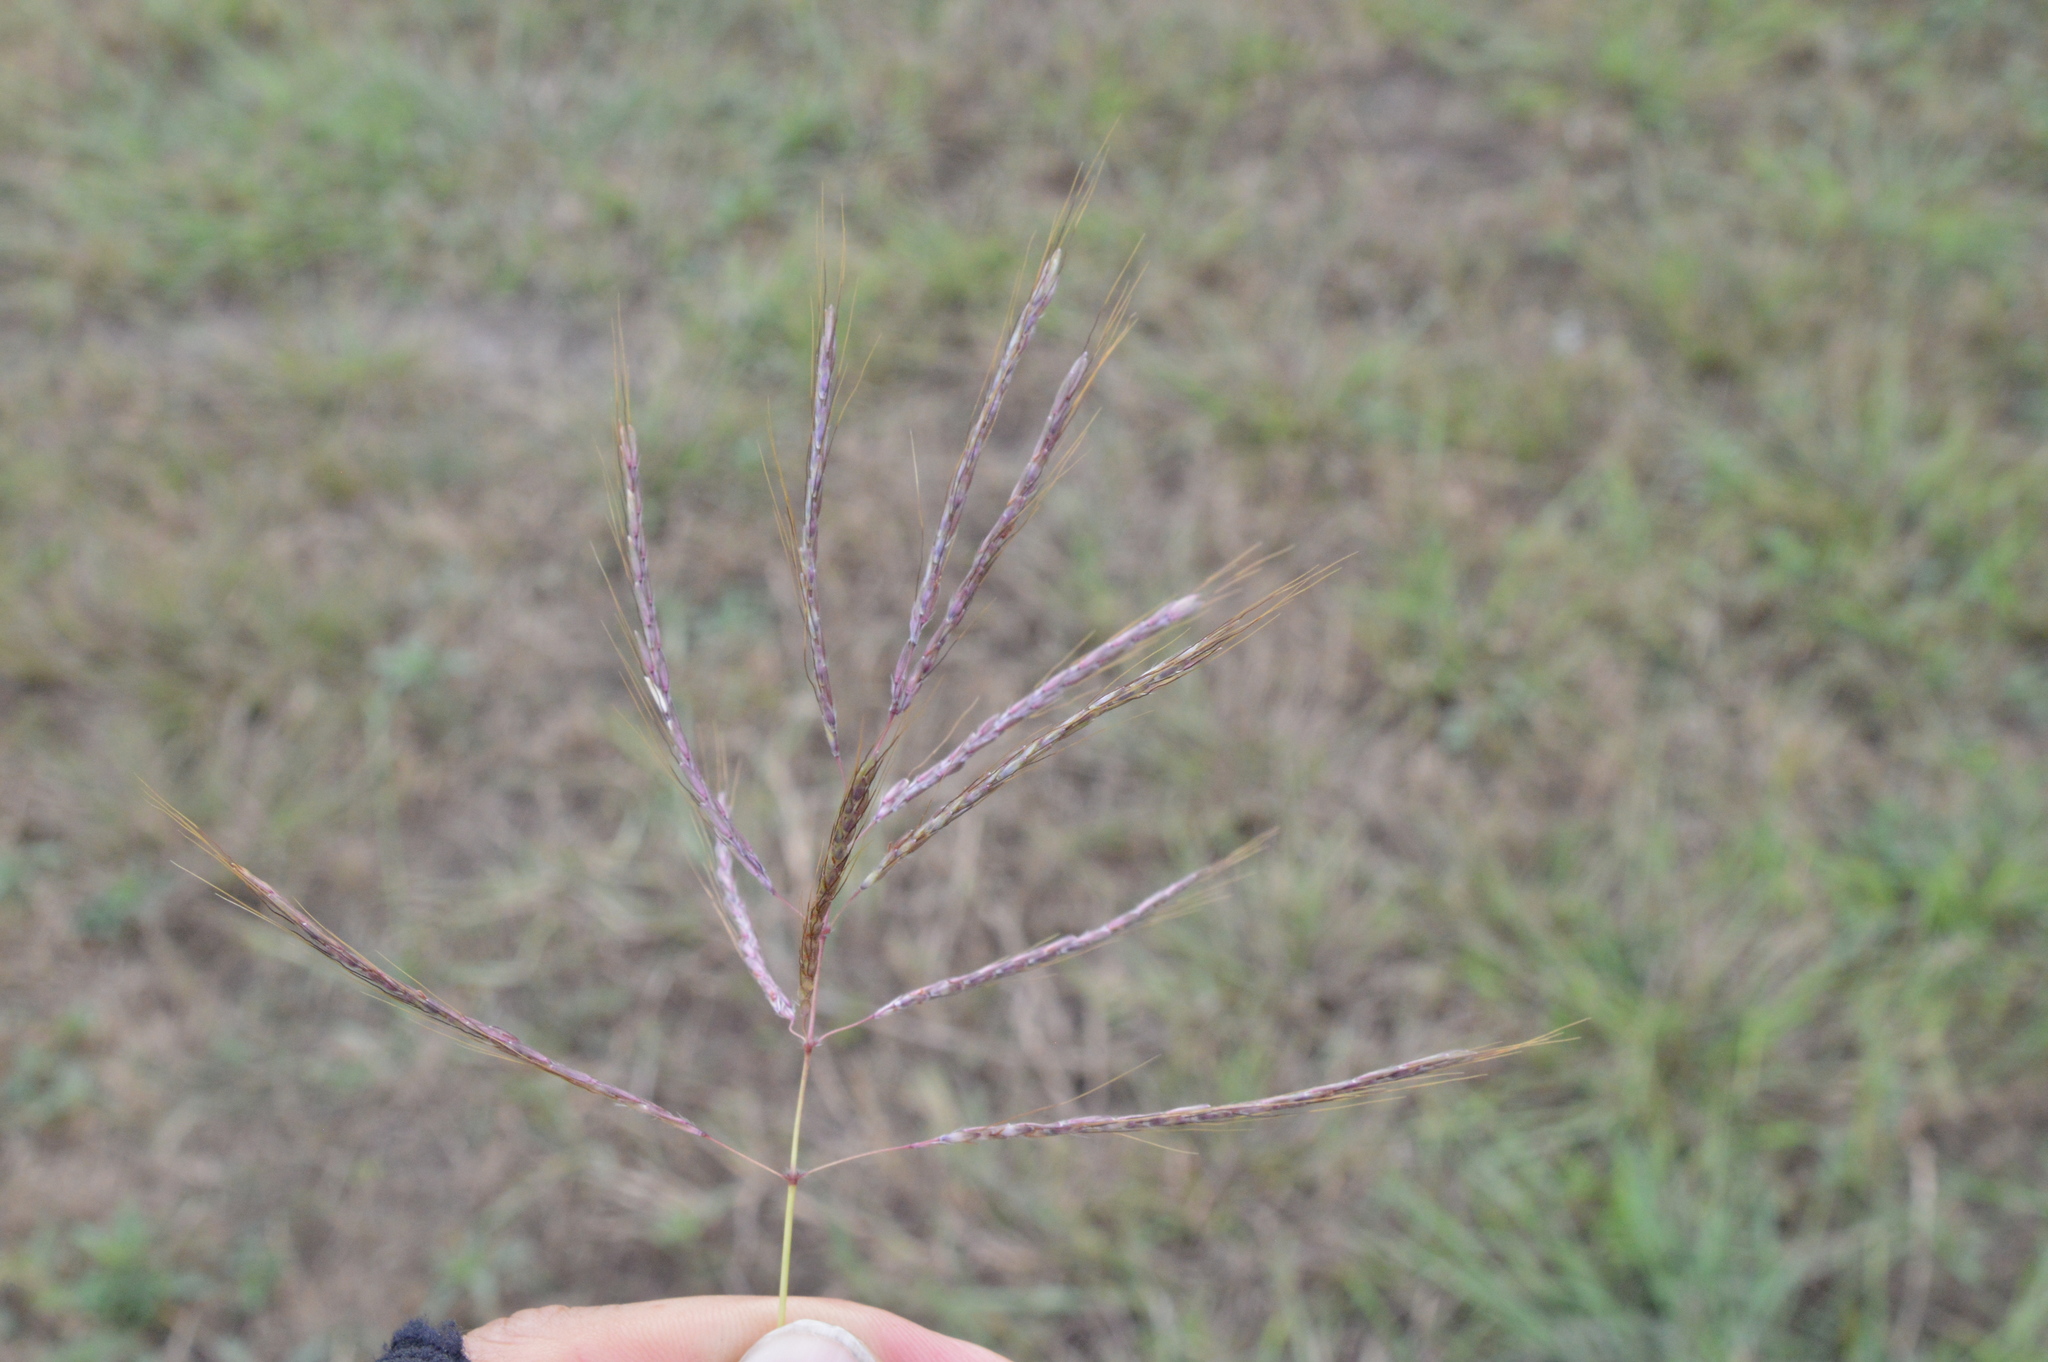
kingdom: Plantae
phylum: Tracheophyta
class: Liliopsida
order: Poales
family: Poaceae
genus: Bothriochloa
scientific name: Bothriochloa bladhii
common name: Caucasian bluestem
